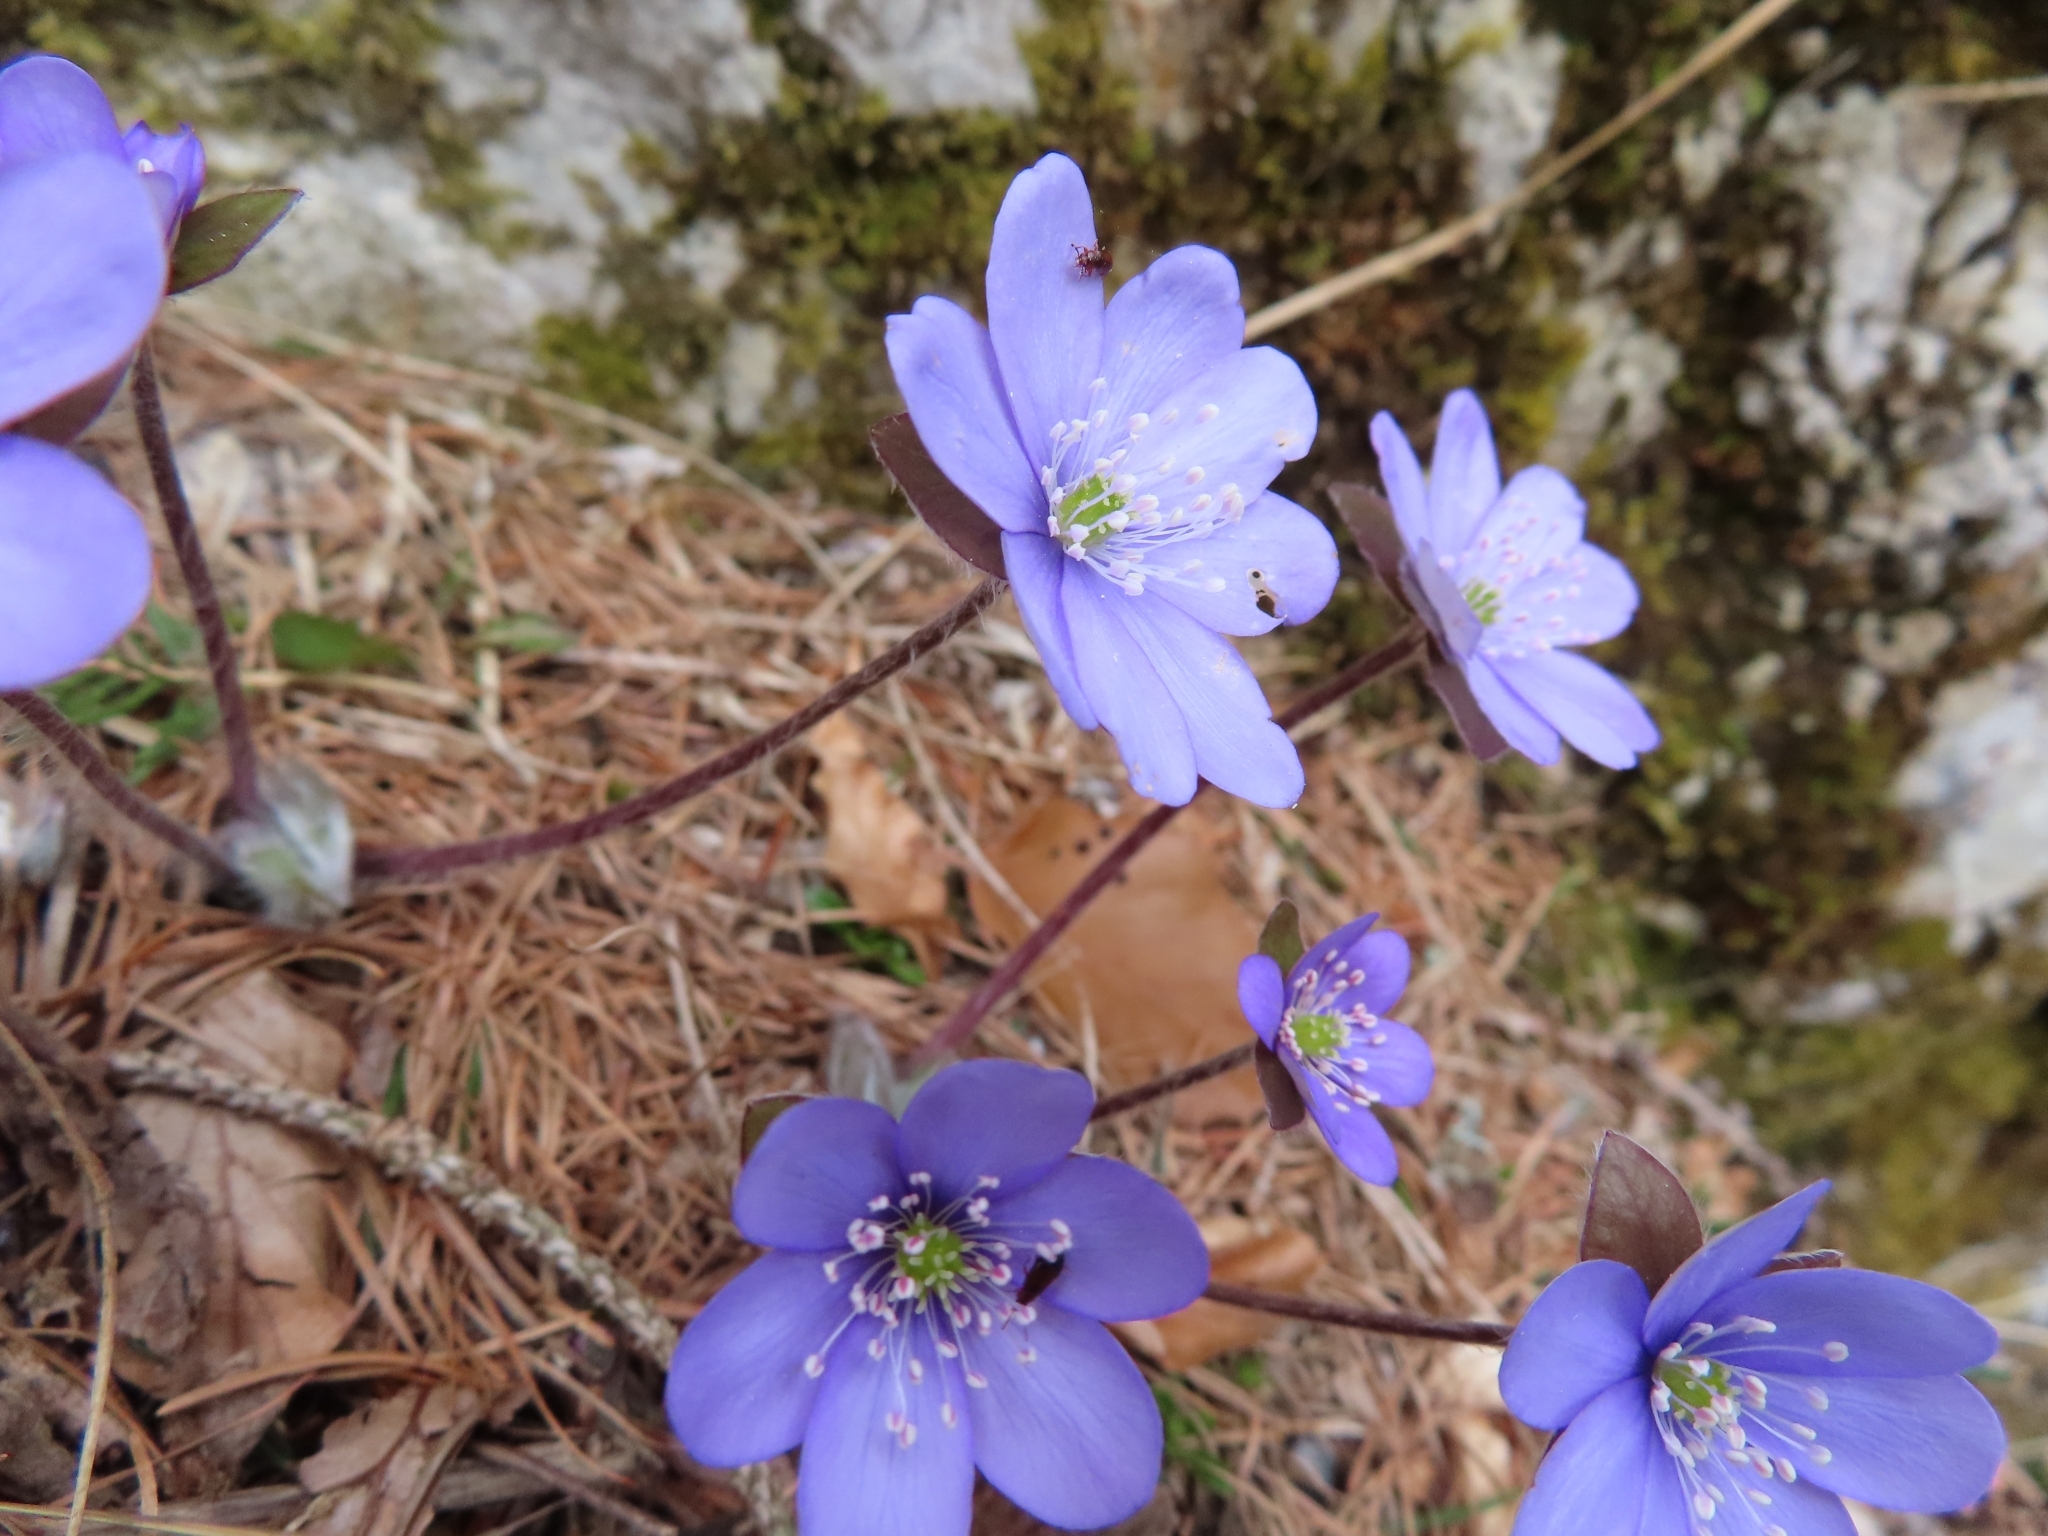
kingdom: Plantae
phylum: Tracheophyta
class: Magnoliopsida
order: Ranunculales
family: Ranunculaceae
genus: Hepatica
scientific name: Hepatica nobilis
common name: Liverleaf
